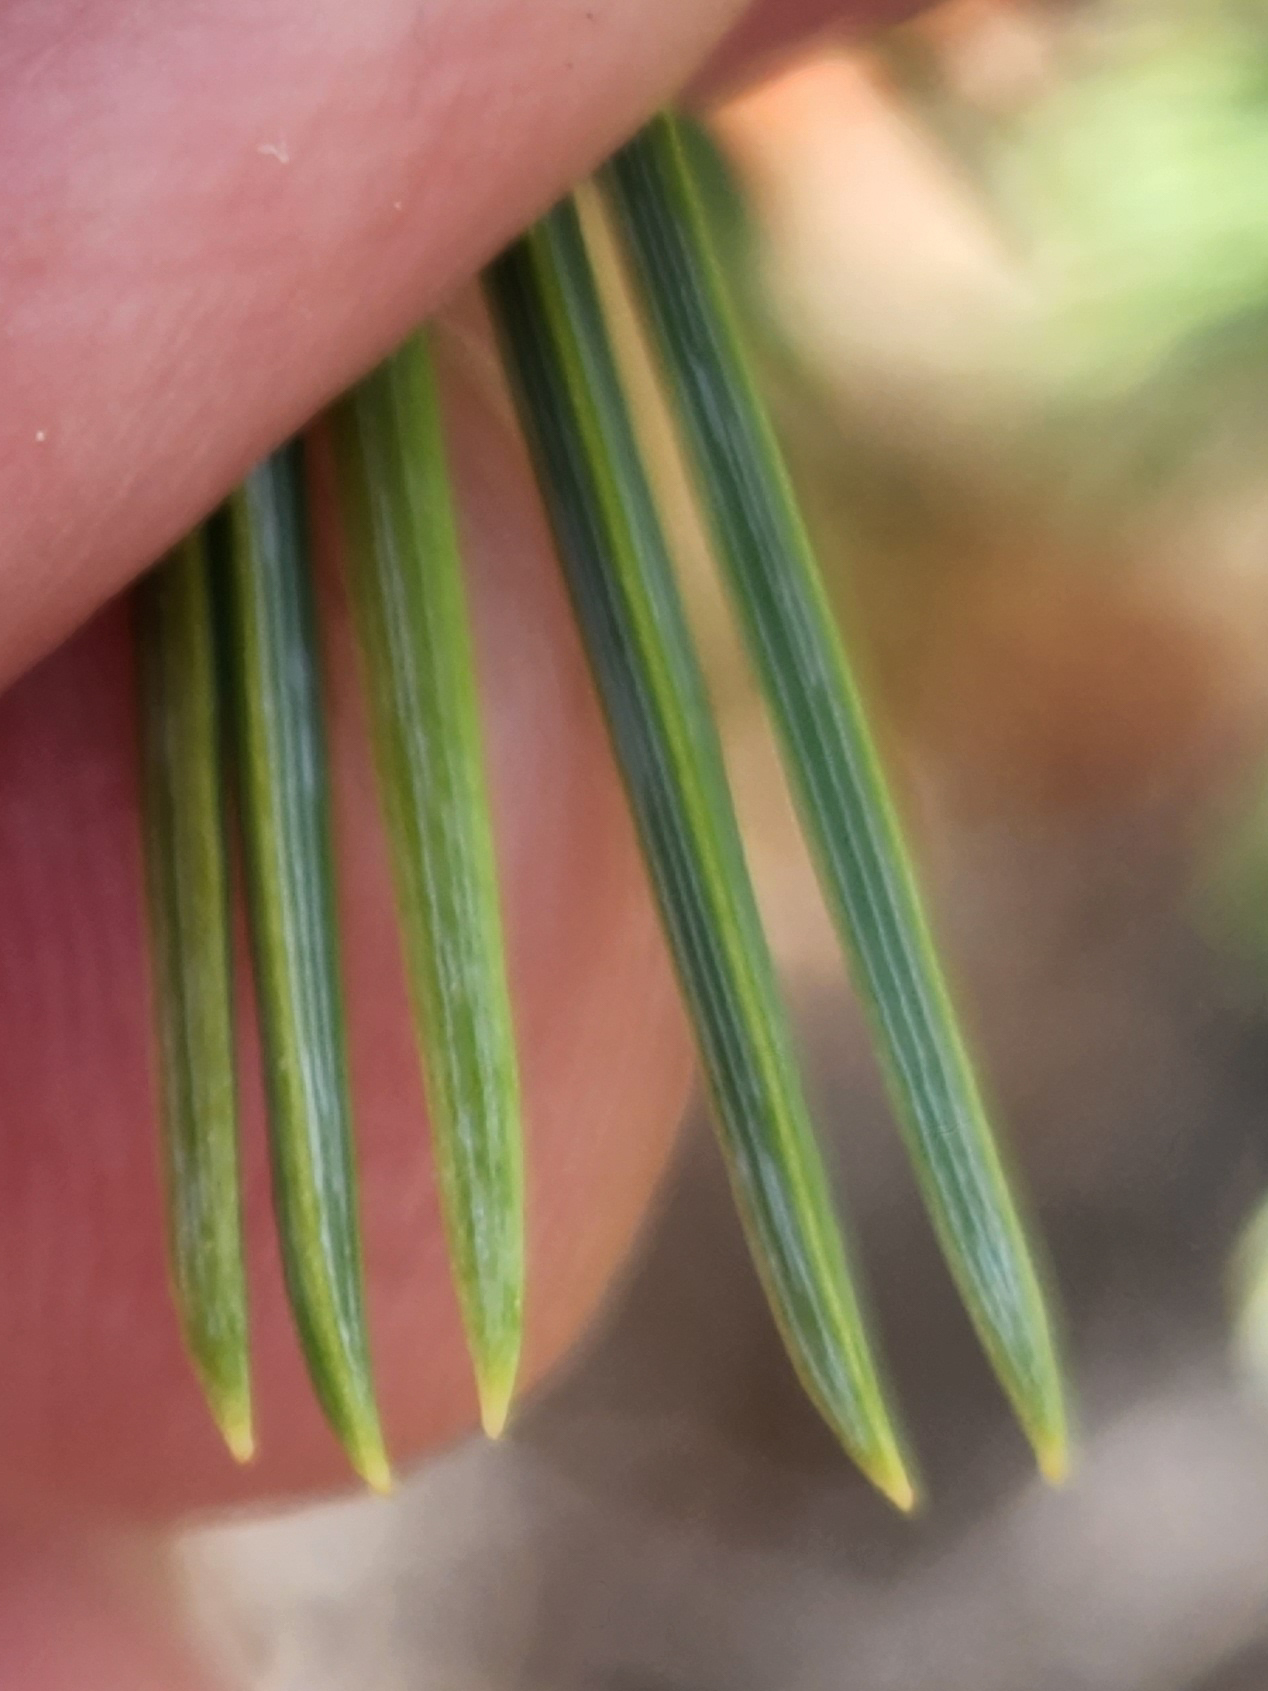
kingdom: Plantae
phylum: Tracheophyta
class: Pinopsida
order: Pinales
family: Pinaceae
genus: Pinus
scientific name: Pinus flexilis
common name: Limber pine
